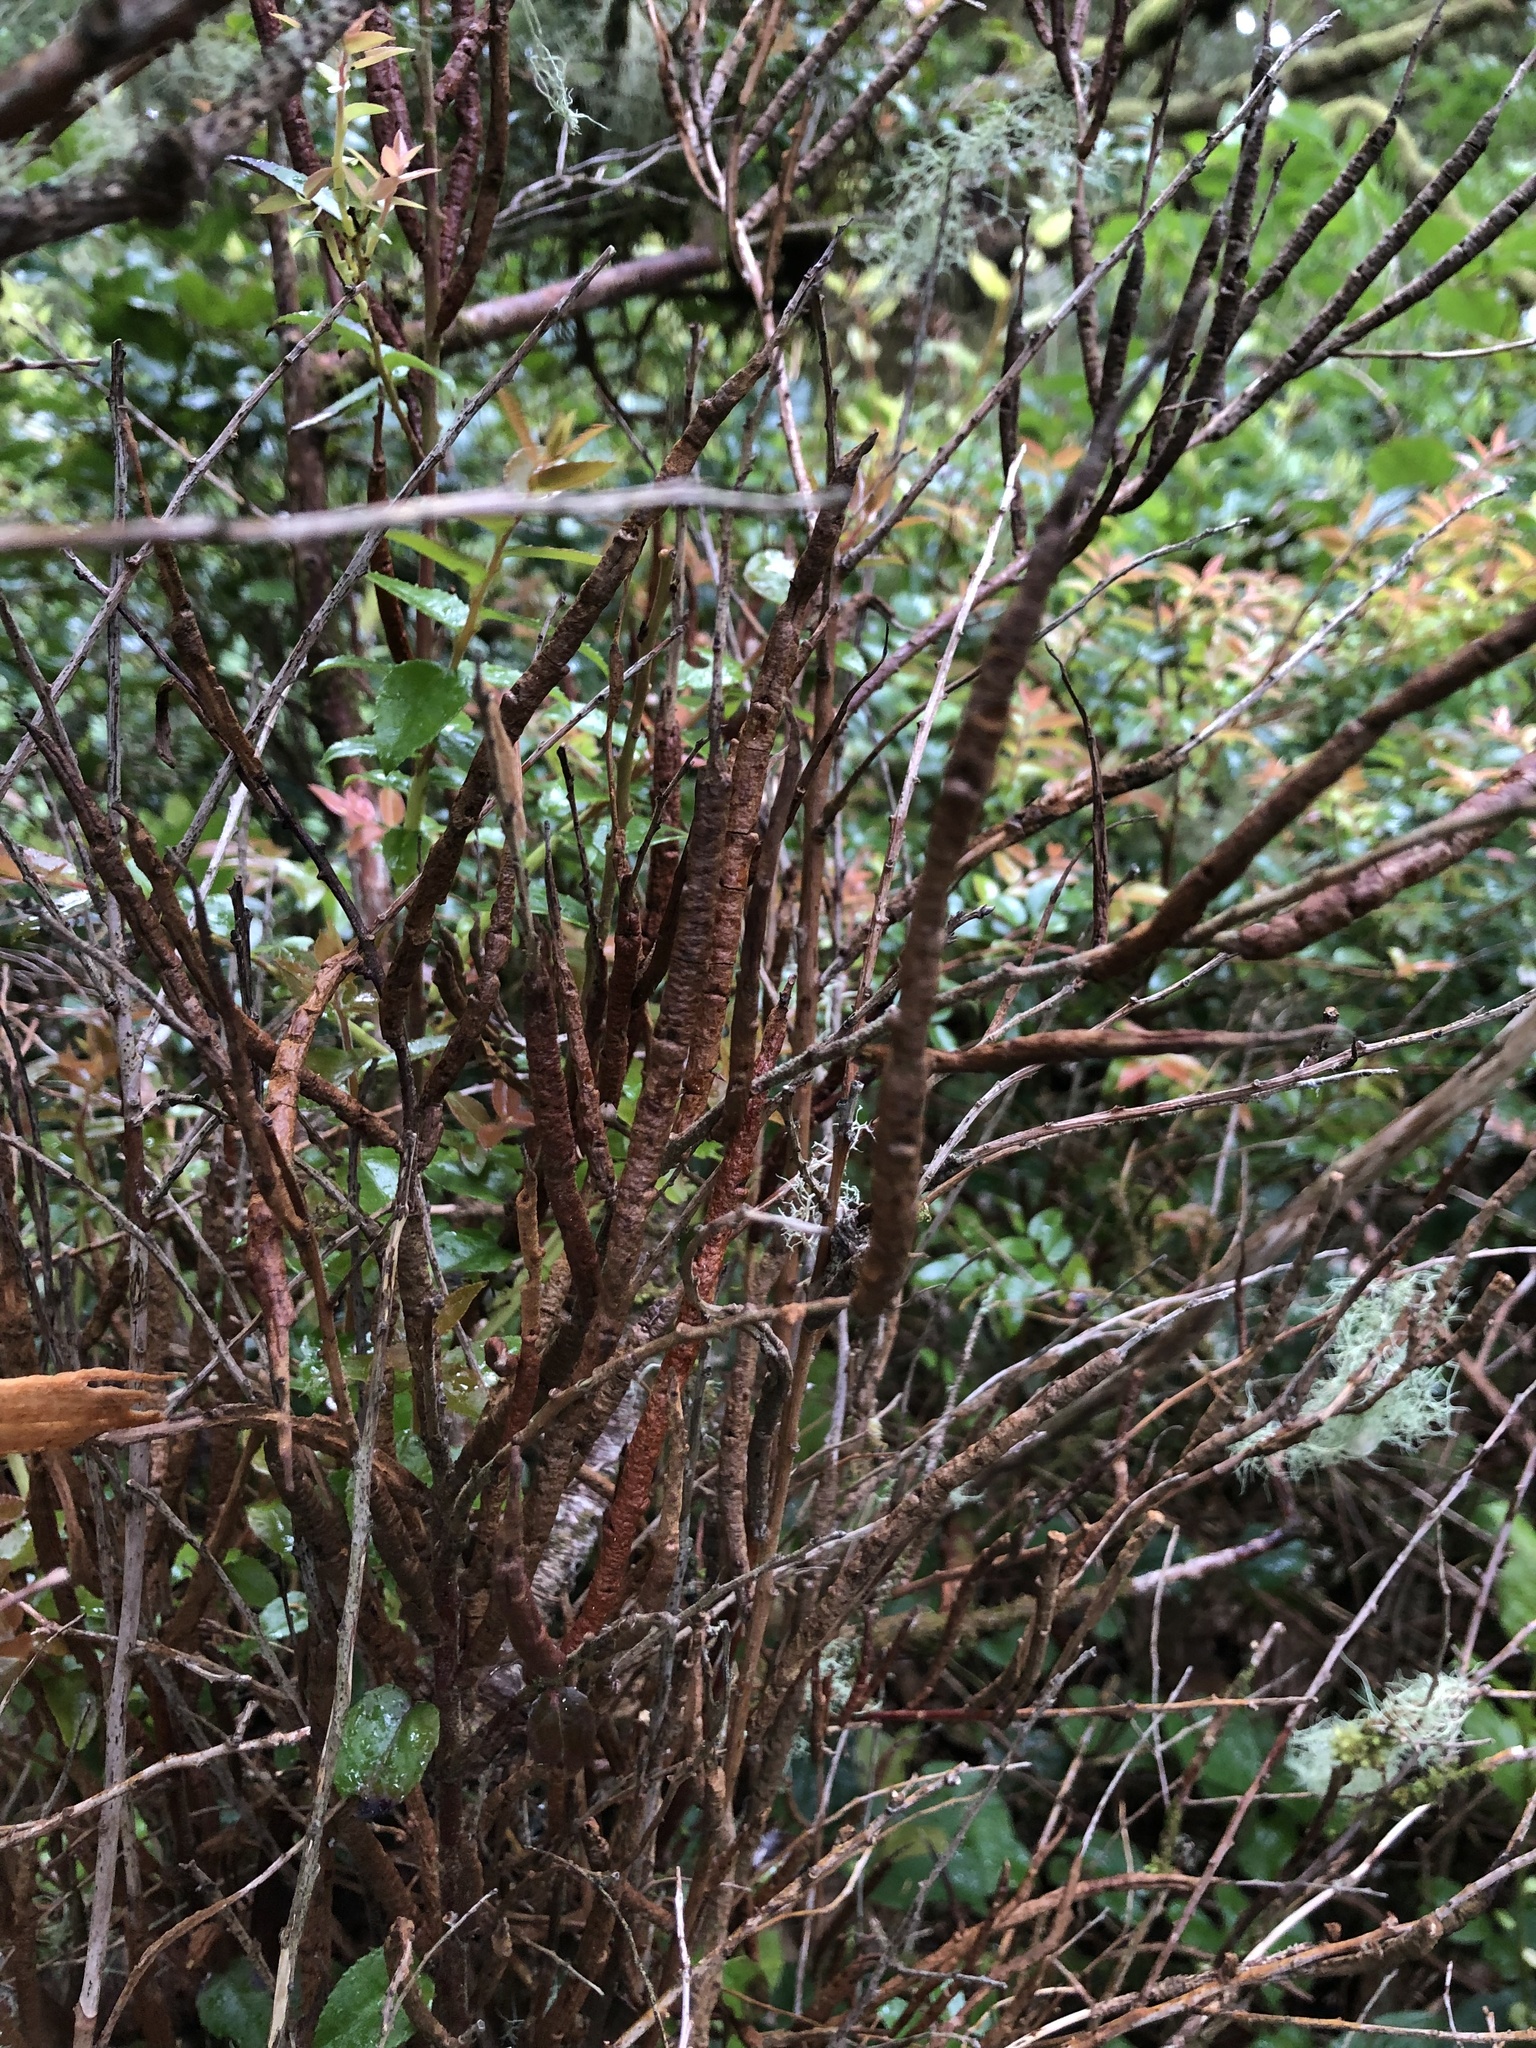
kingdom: Fungi
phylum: Basidiomycota
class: Pucciniomycetes
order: Pucciniales
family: Pucciniastraceae
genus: Calyptospora
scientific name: Calyptospora
